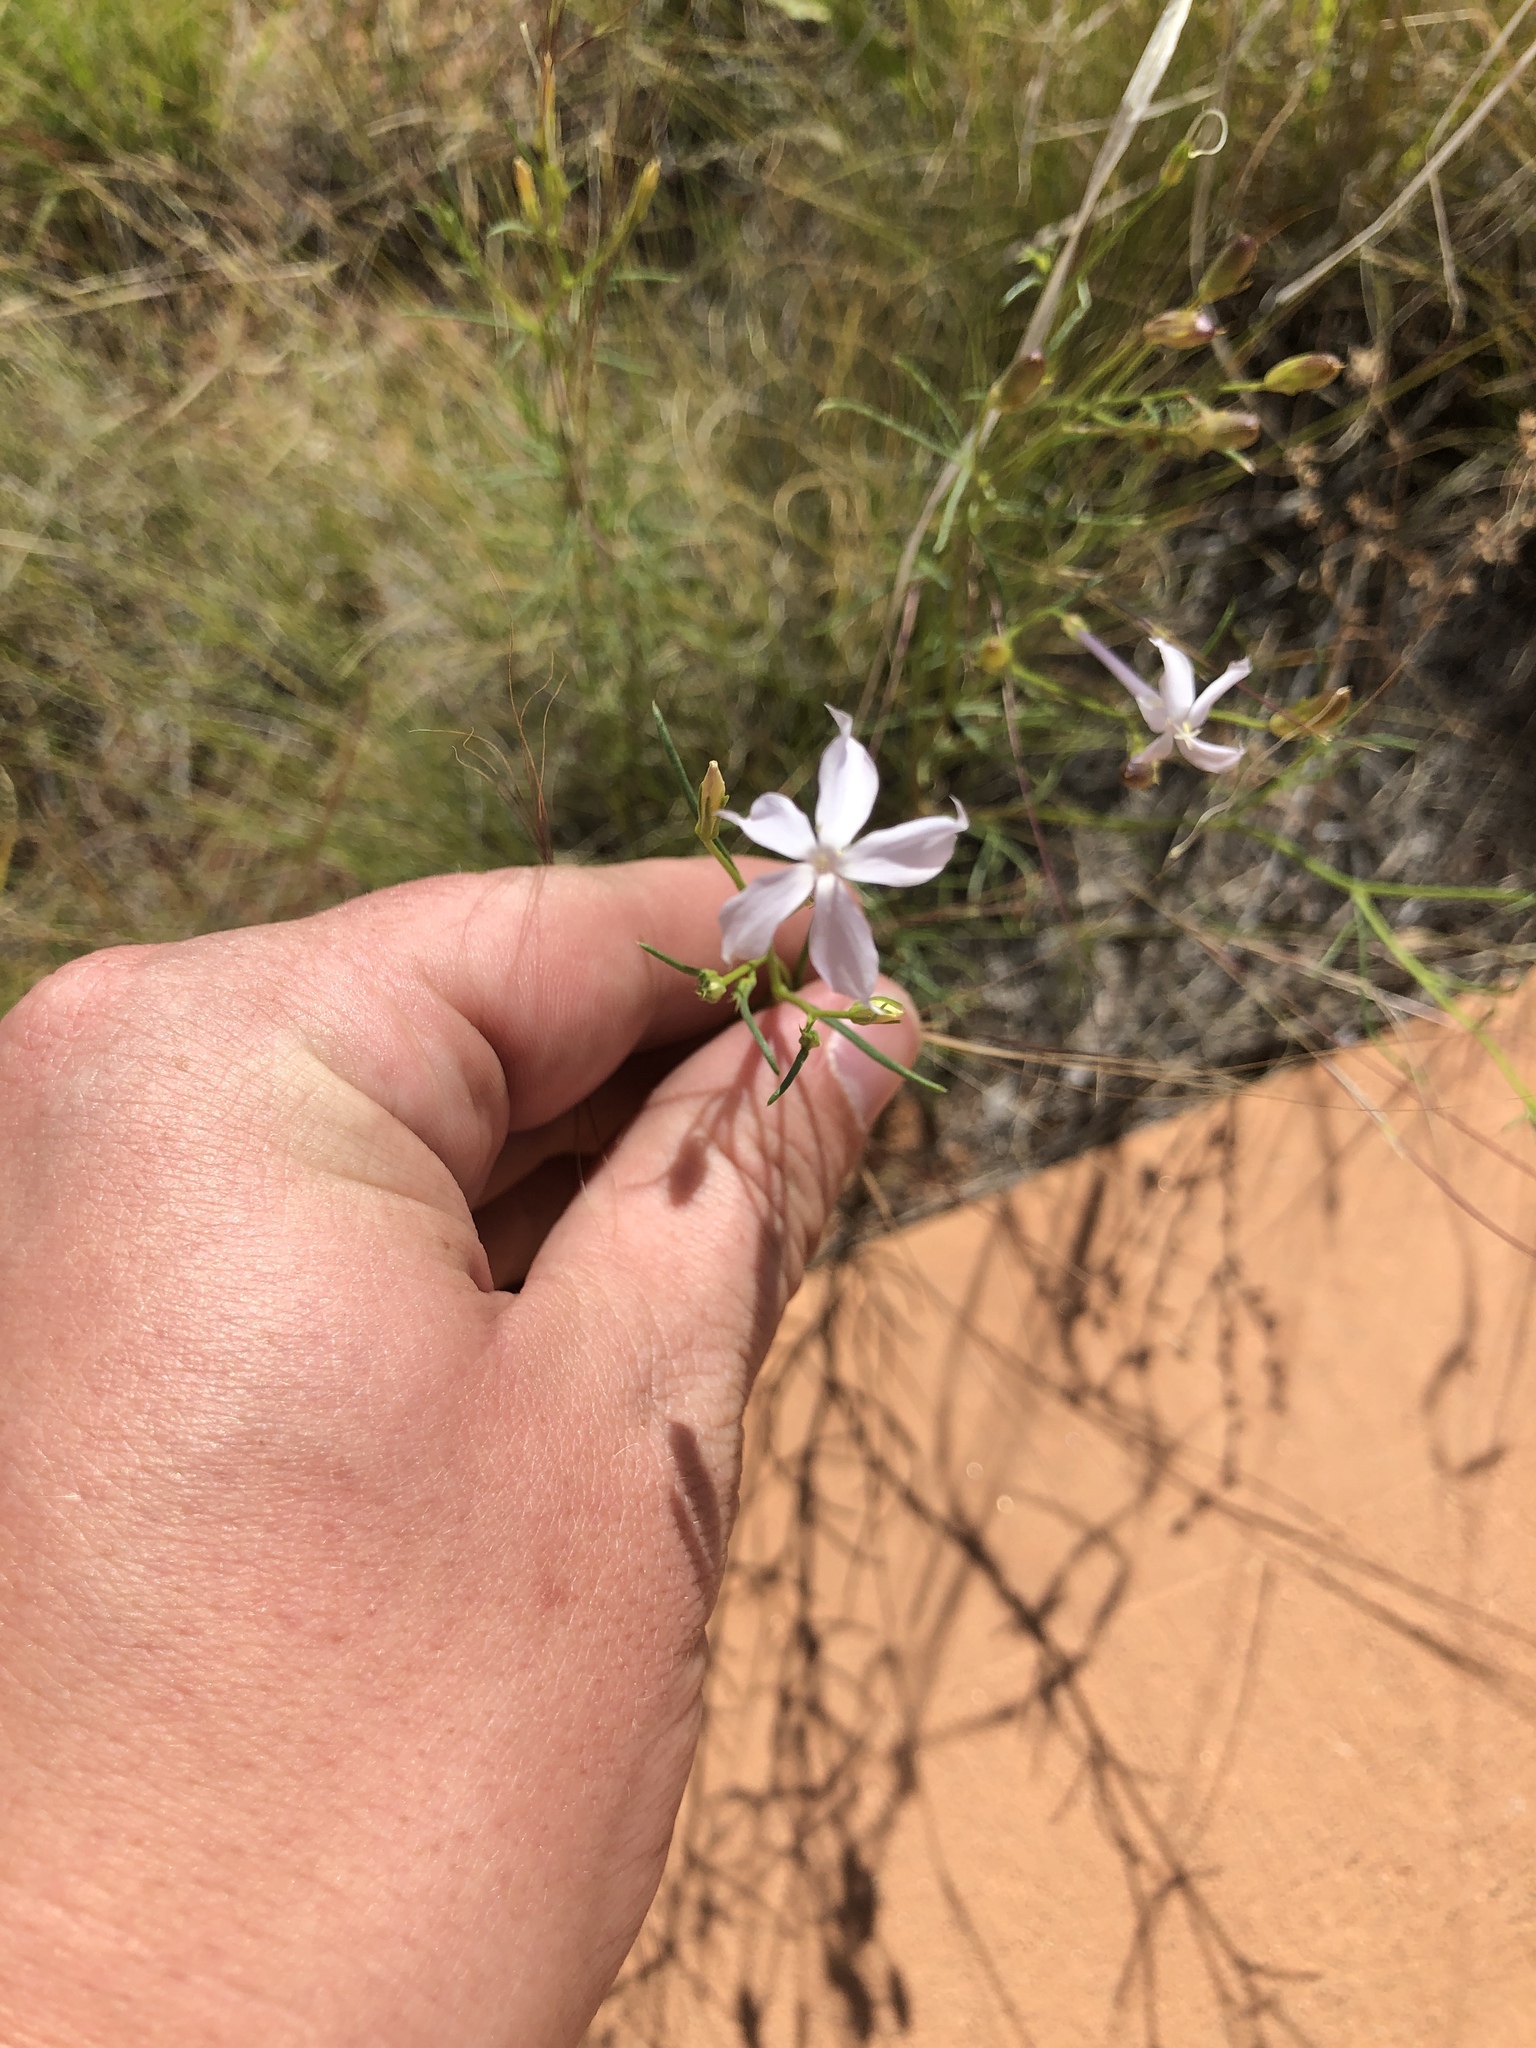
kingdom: Plantae
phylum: Tracheophyta
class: Magnoliopsida
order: Ericales
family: Polemoniaceae
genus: Ipomopsis
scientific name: Ipomopsis longiflora
